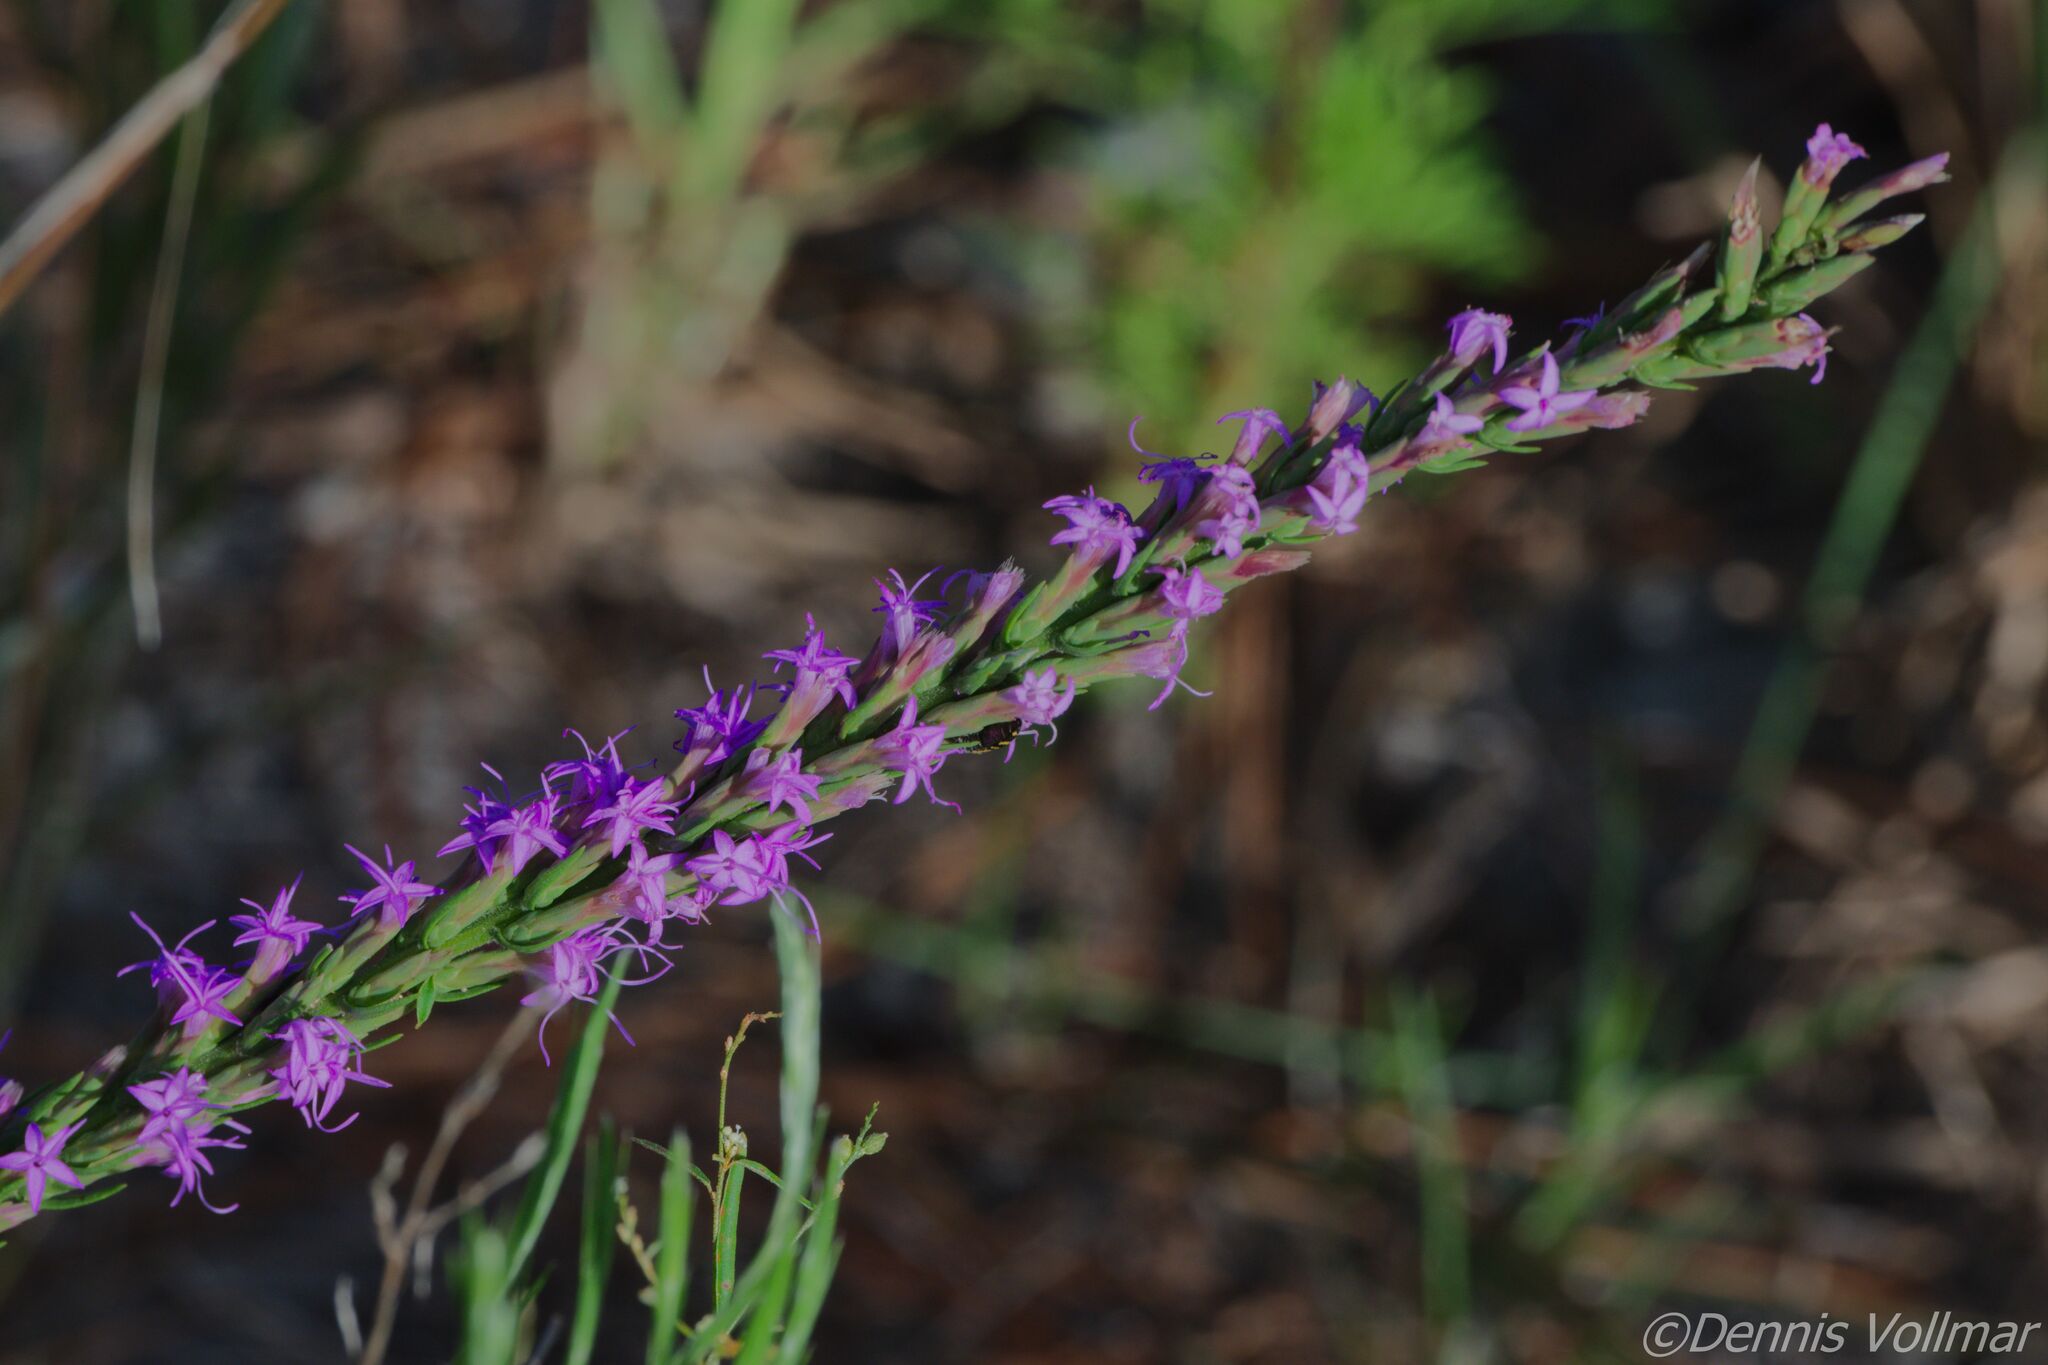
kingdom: Plantae
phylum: Tracheophyta
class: Magnoliopsida
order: Asterales
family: Asteraceae
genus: Liatris
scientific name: Liatris chapmanii
